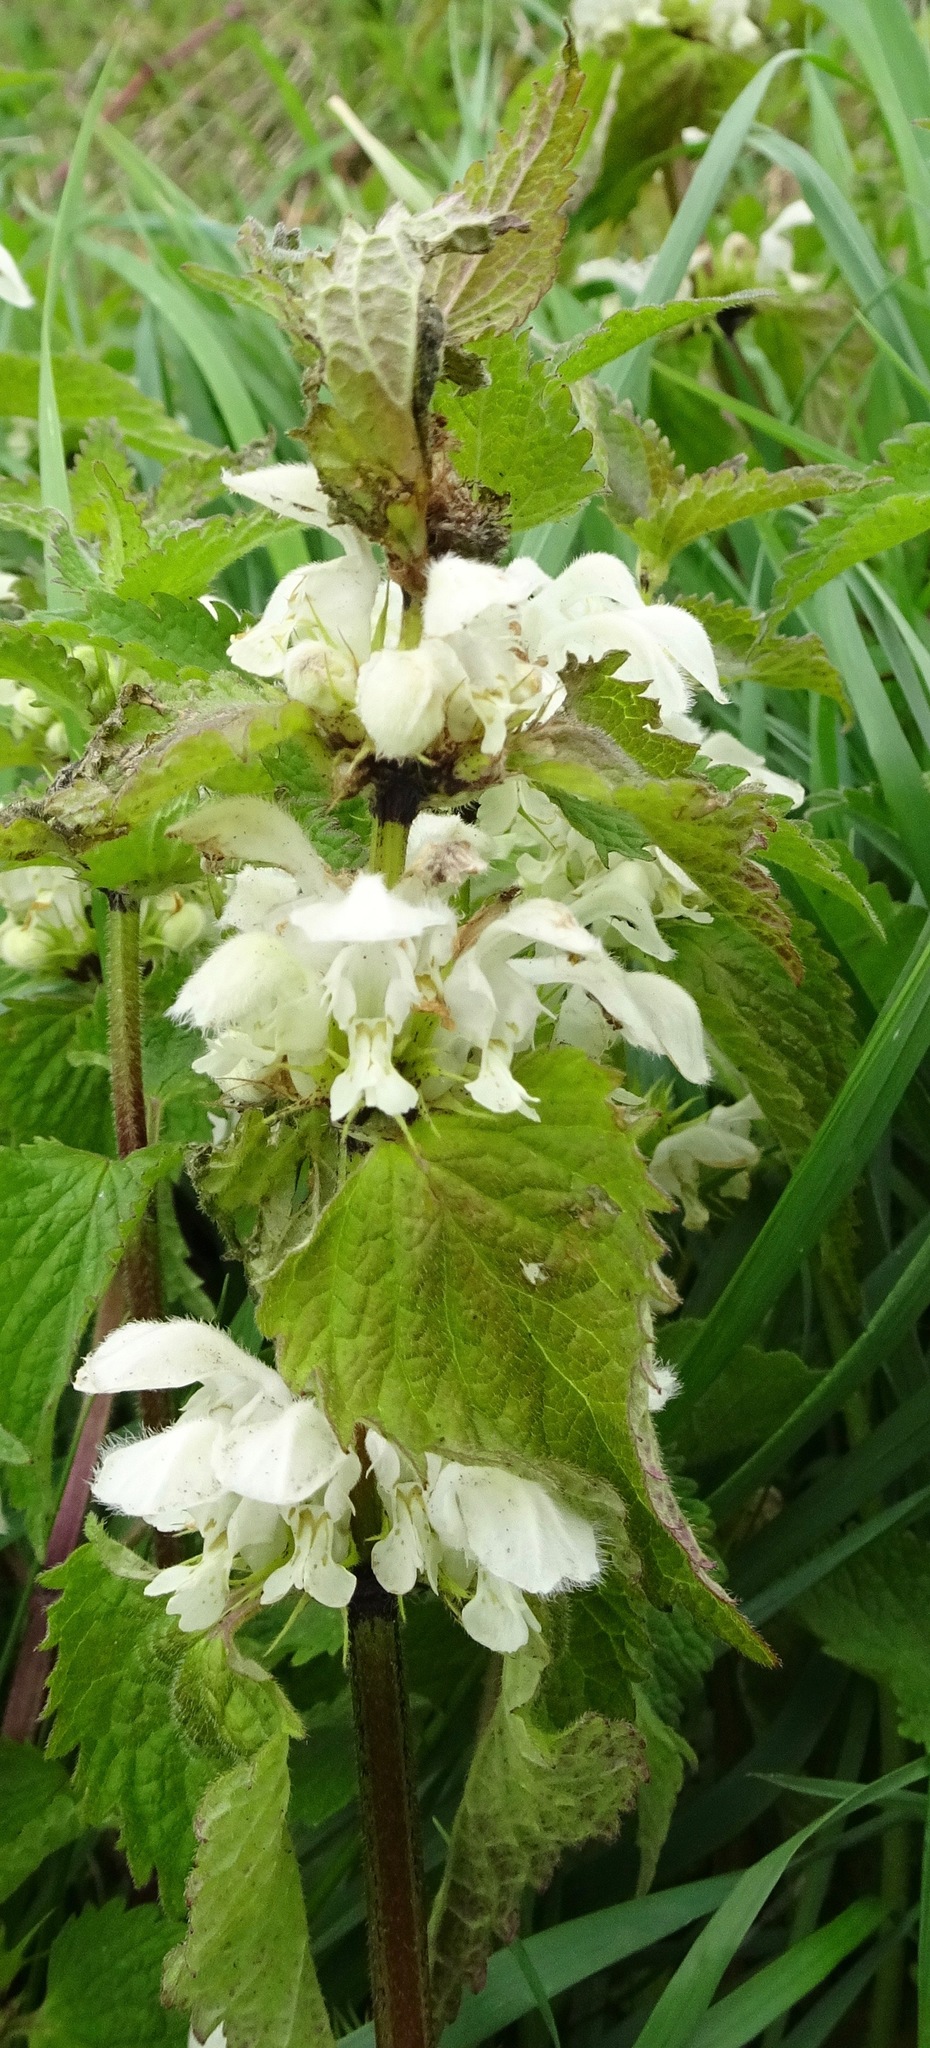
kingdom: Plantae
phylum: Tracheophyta
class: Magnoliopsida
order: Lamiales
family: Lamiaceae
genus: Lamium
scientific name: Lamium album
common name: White dead-nettle
